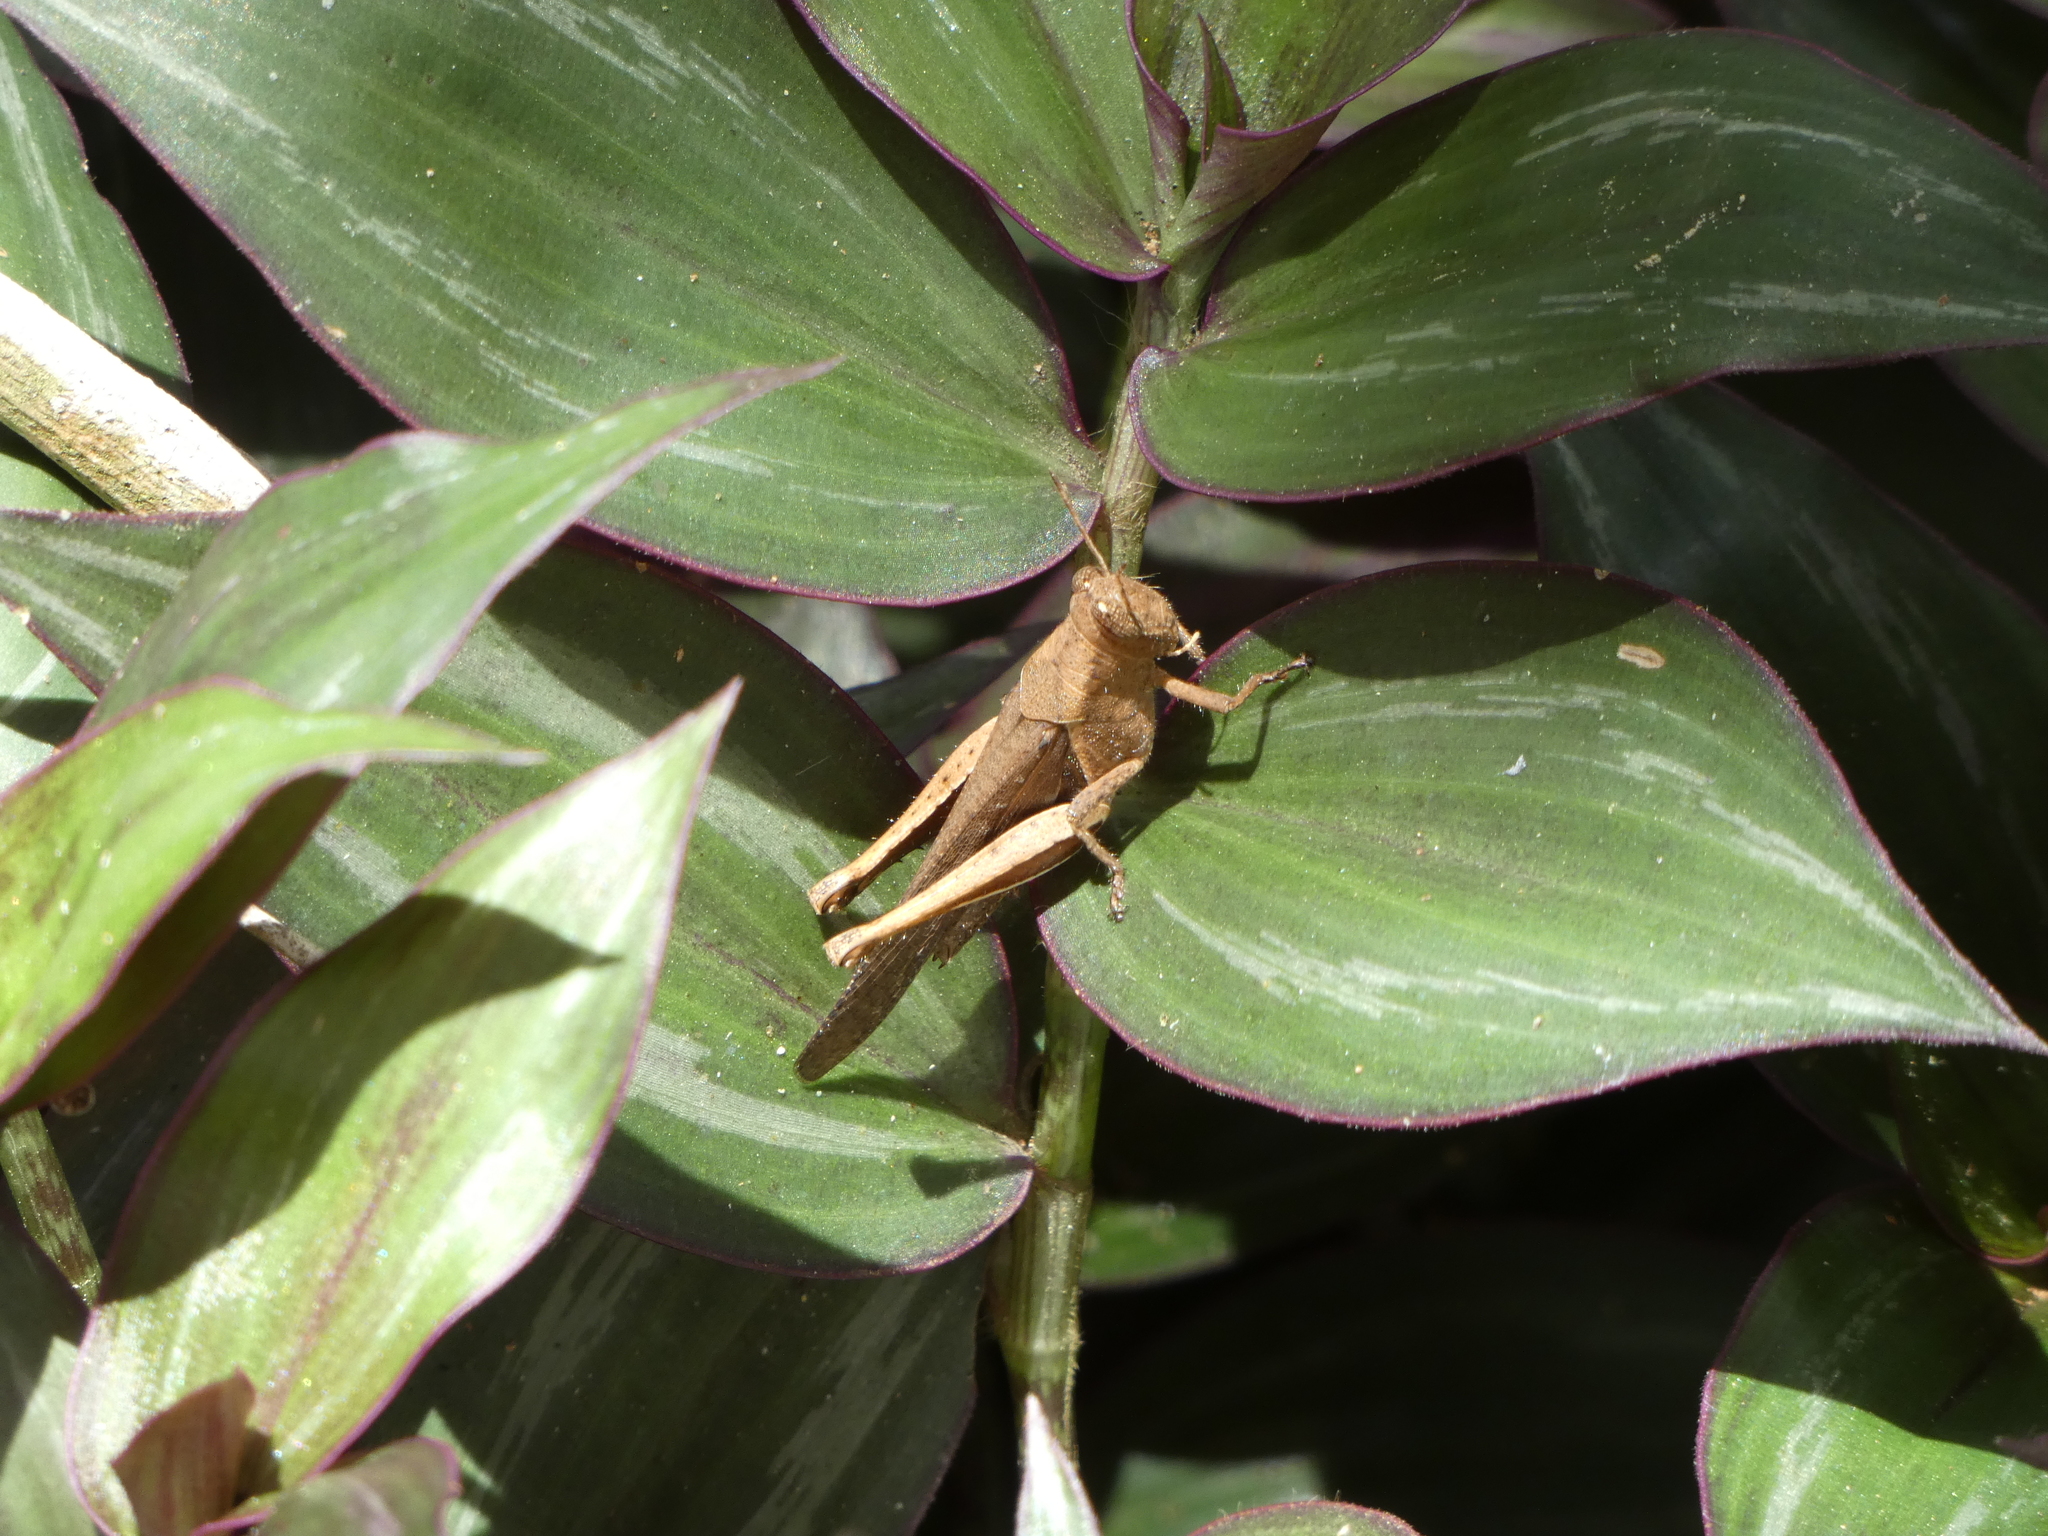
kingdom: Animalia
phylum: Arthropoda
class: Insecta
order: Orthoptera
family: Acrididae
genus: Abracris
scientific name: Abracris flavolineata
